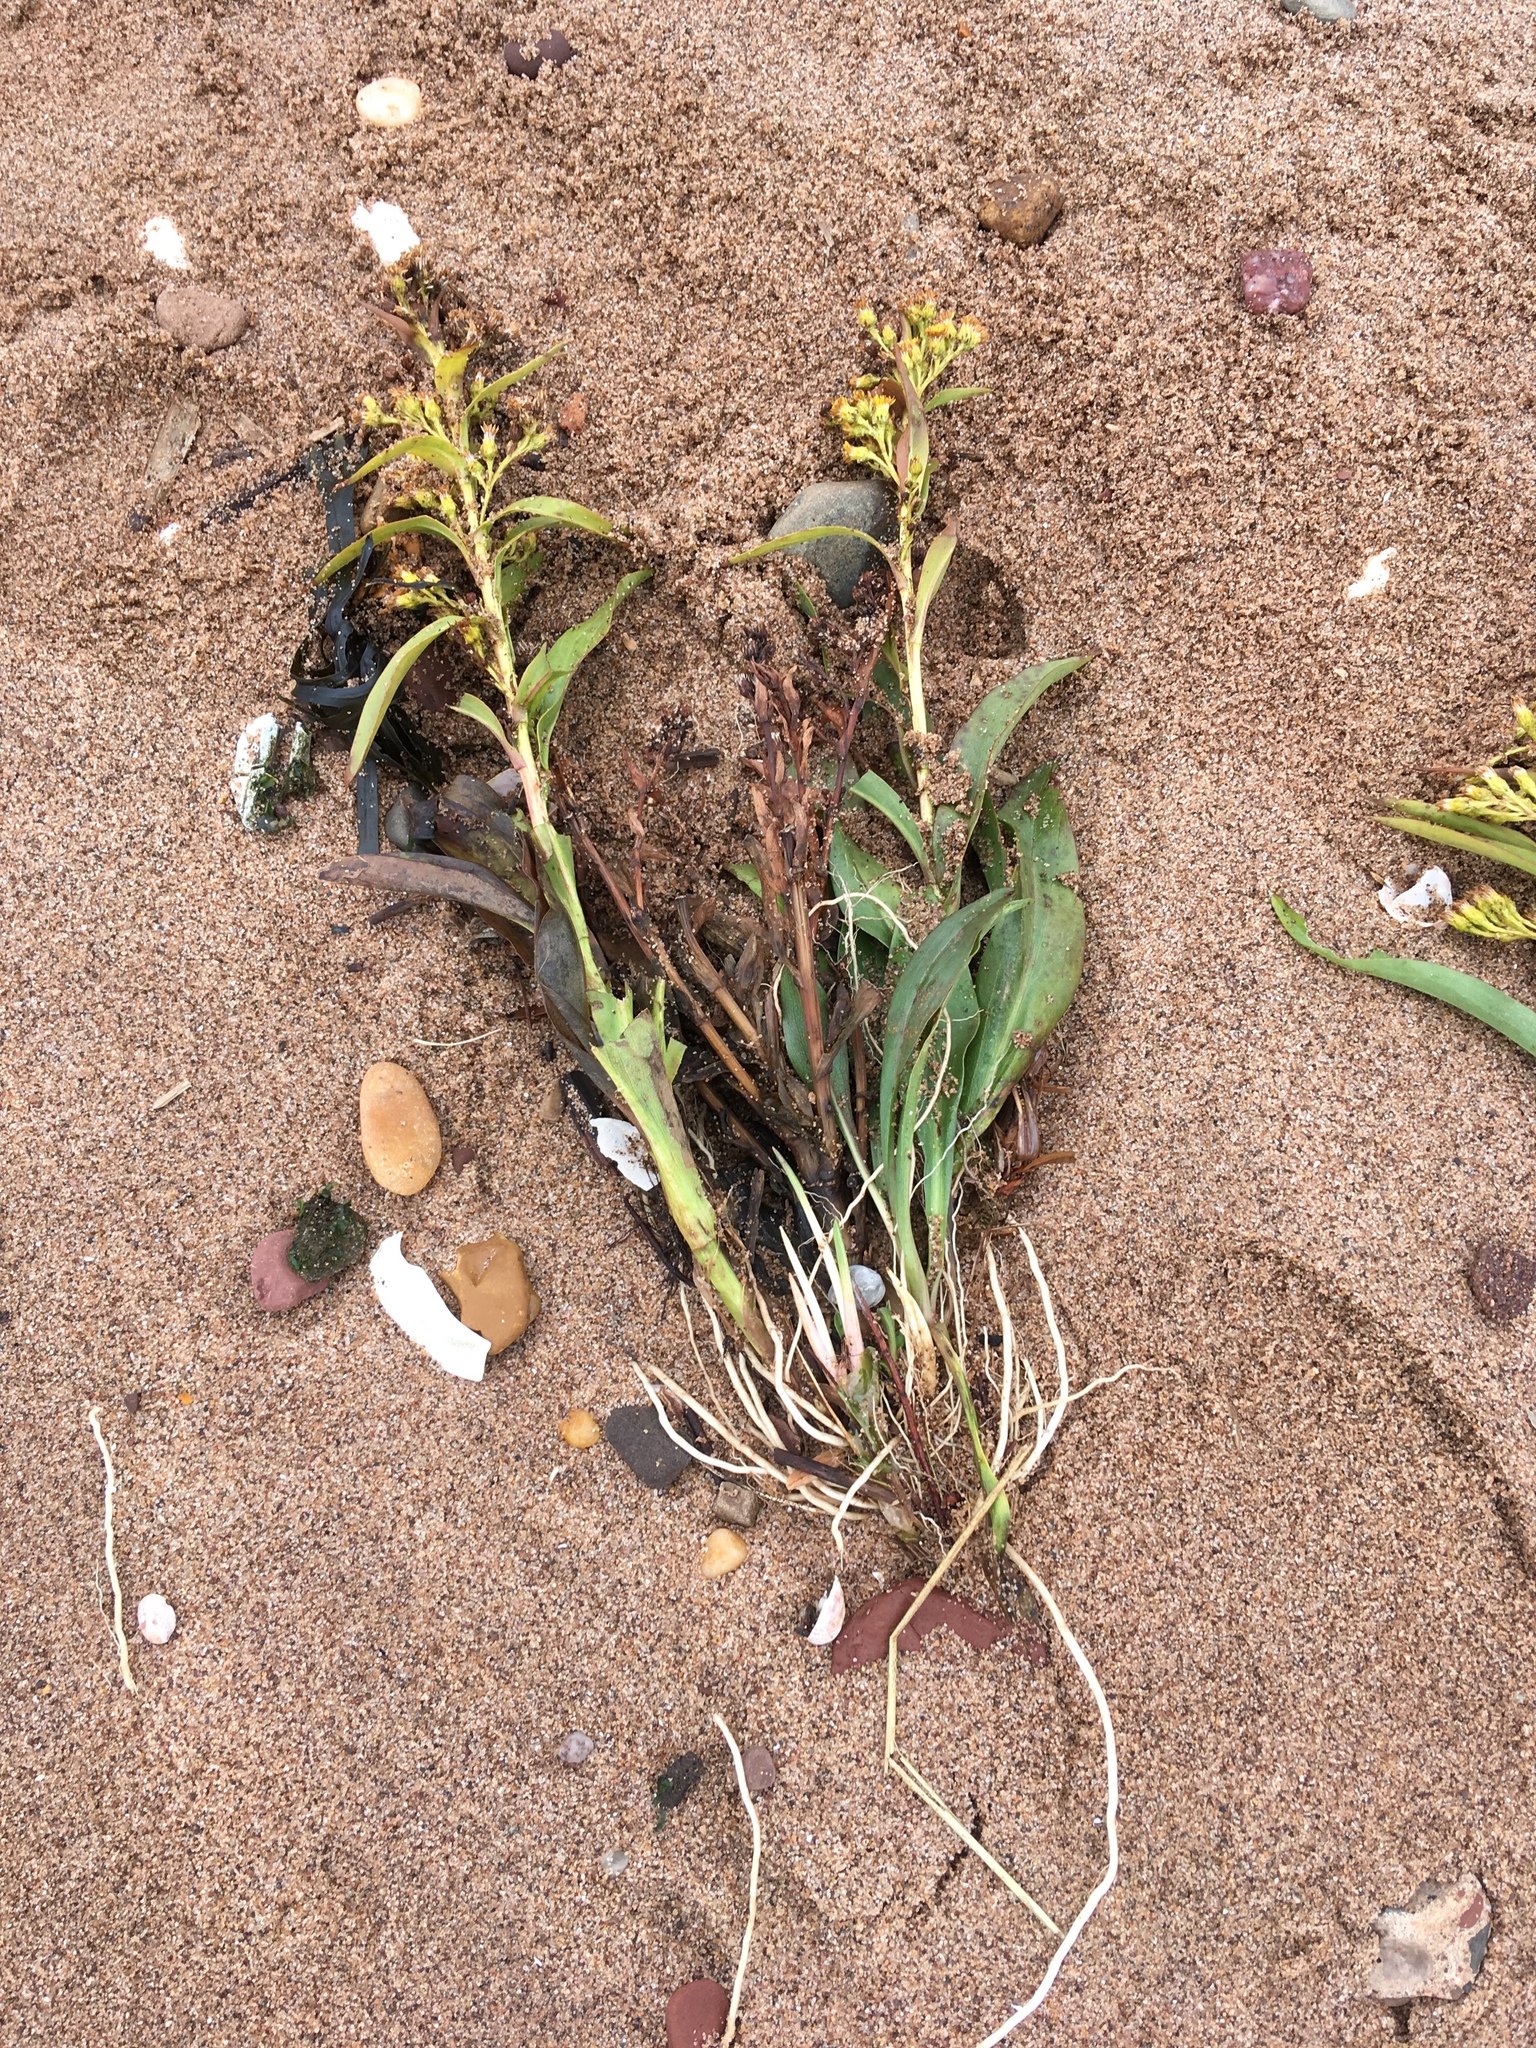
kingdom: Plantae
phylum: Tracheophyta
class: Magnoliopsida
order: Asterales
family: Asteraceae
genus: Solidago
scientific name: Solidago sempervirens
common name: Salt-marsh goldenrod
